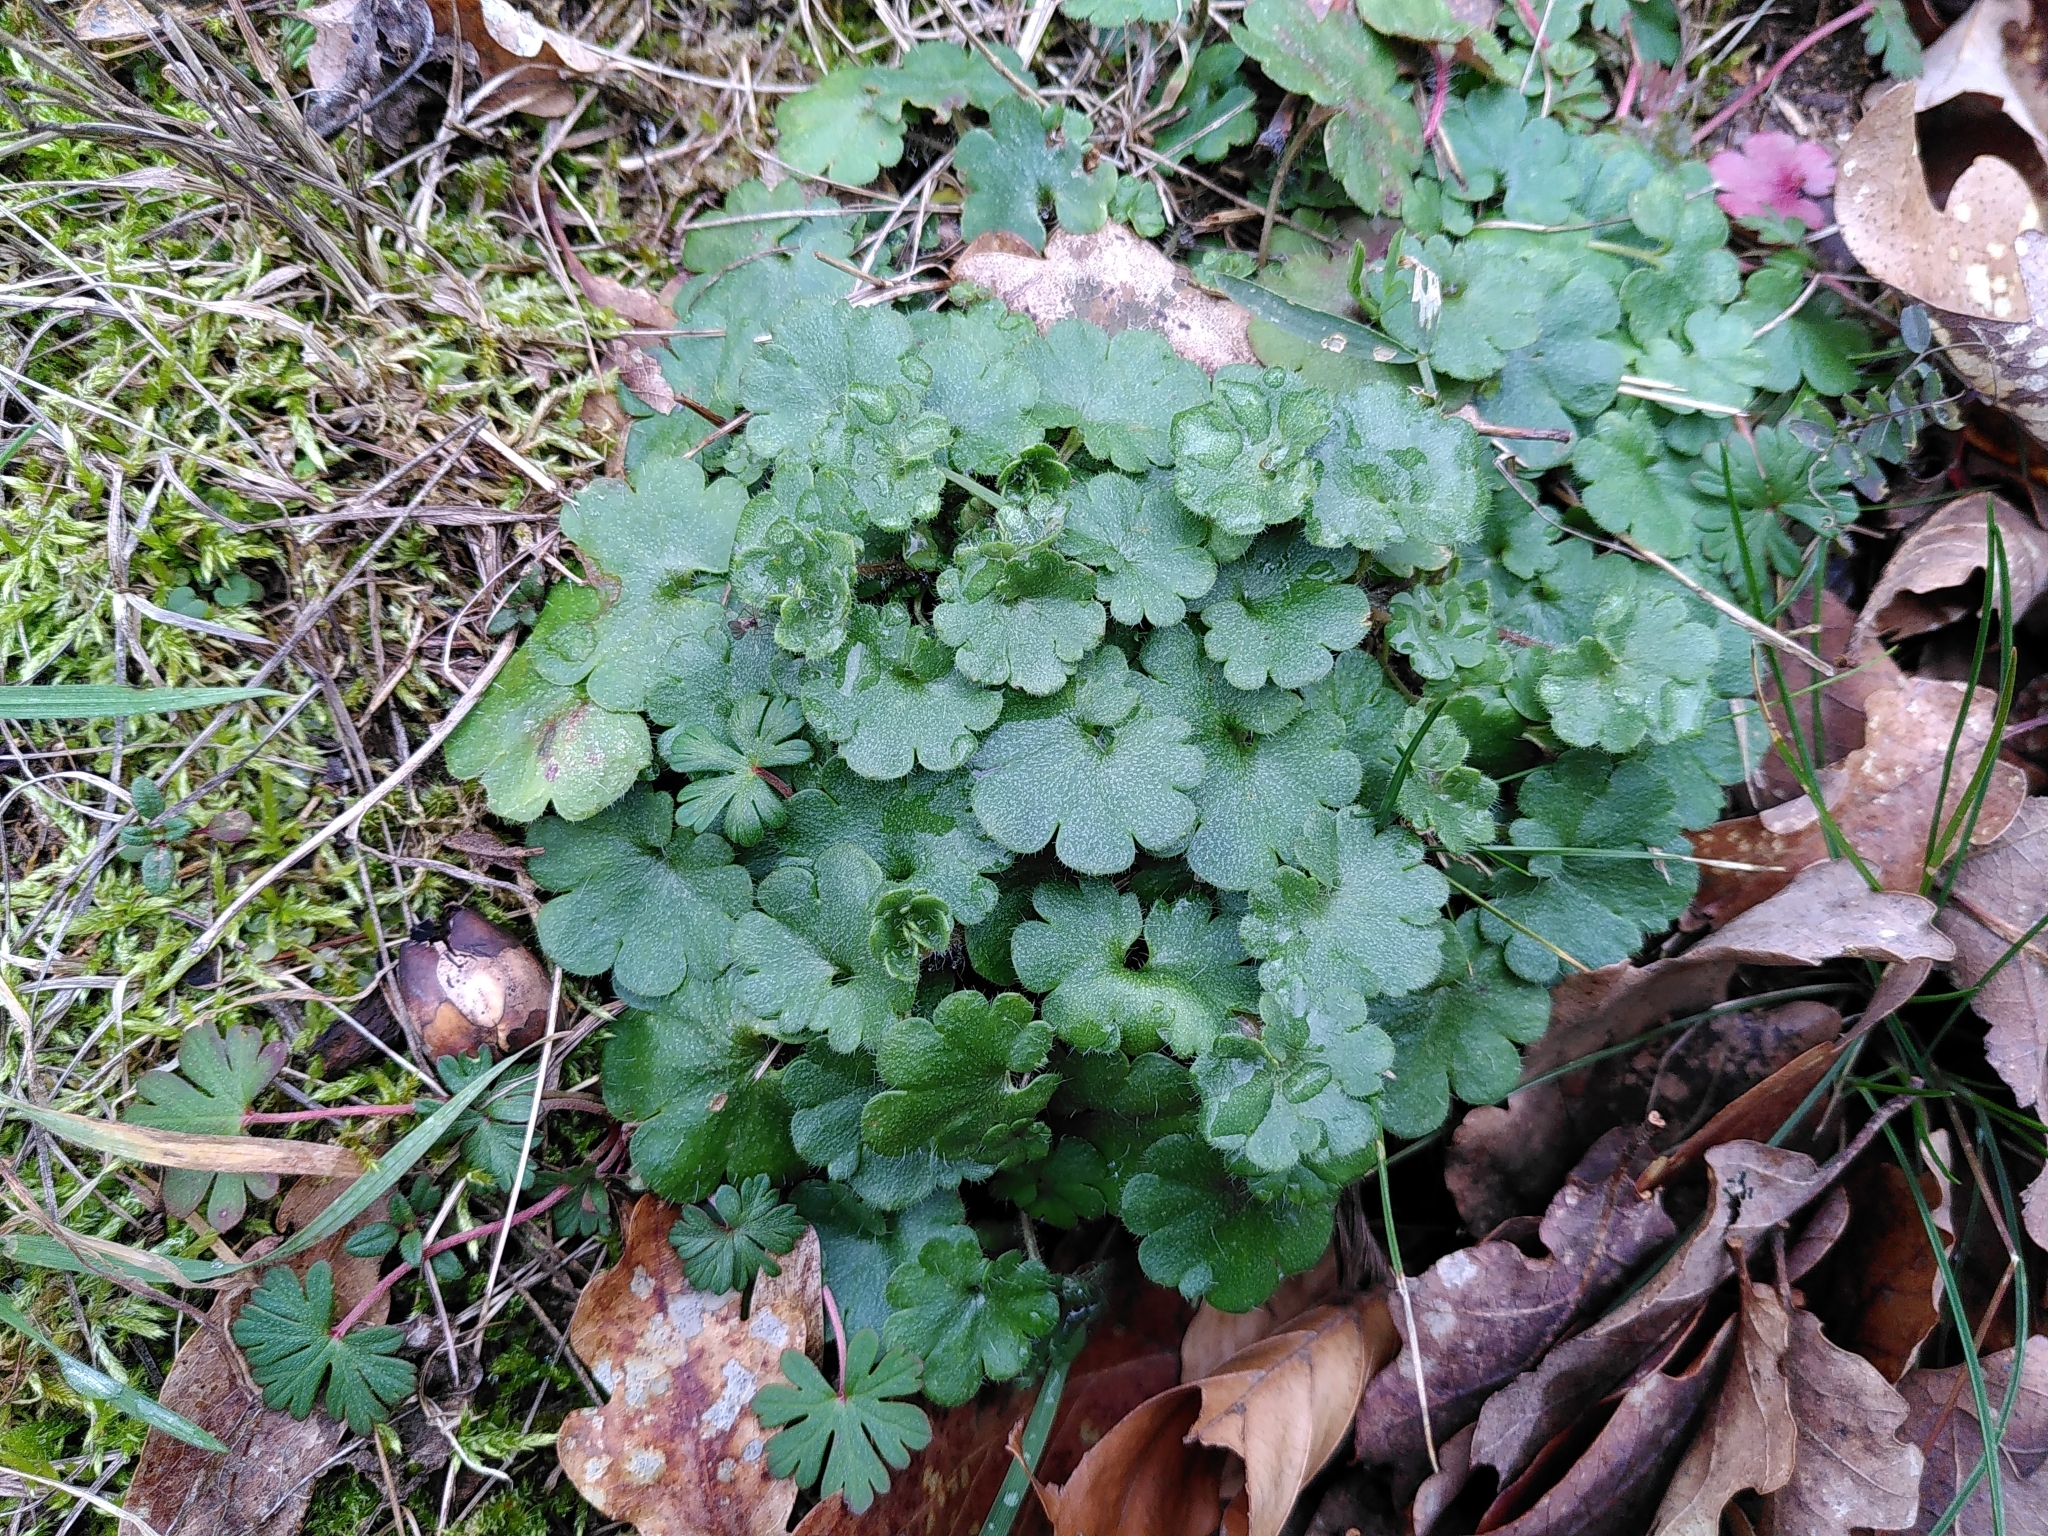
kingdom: Plantae
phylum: Tracheophyta
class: Magnoliopsida
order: Saxifragales
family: Saxifragaceae
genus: Saxifraga
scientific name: Saxifraga granulata
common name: Meadow saxifrage
